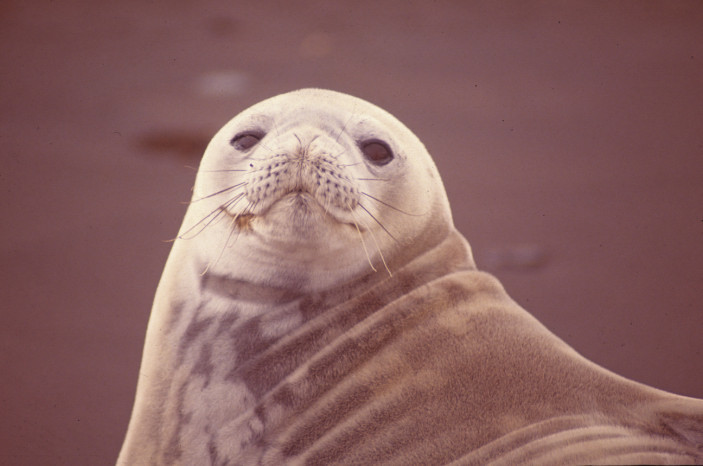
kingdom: Animalia
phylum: Chordata
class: Mammalia
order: Carnivora
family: Phocidae
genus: Leptonychotes
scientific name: Leptonychotes weddellii
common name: Weddell seal
